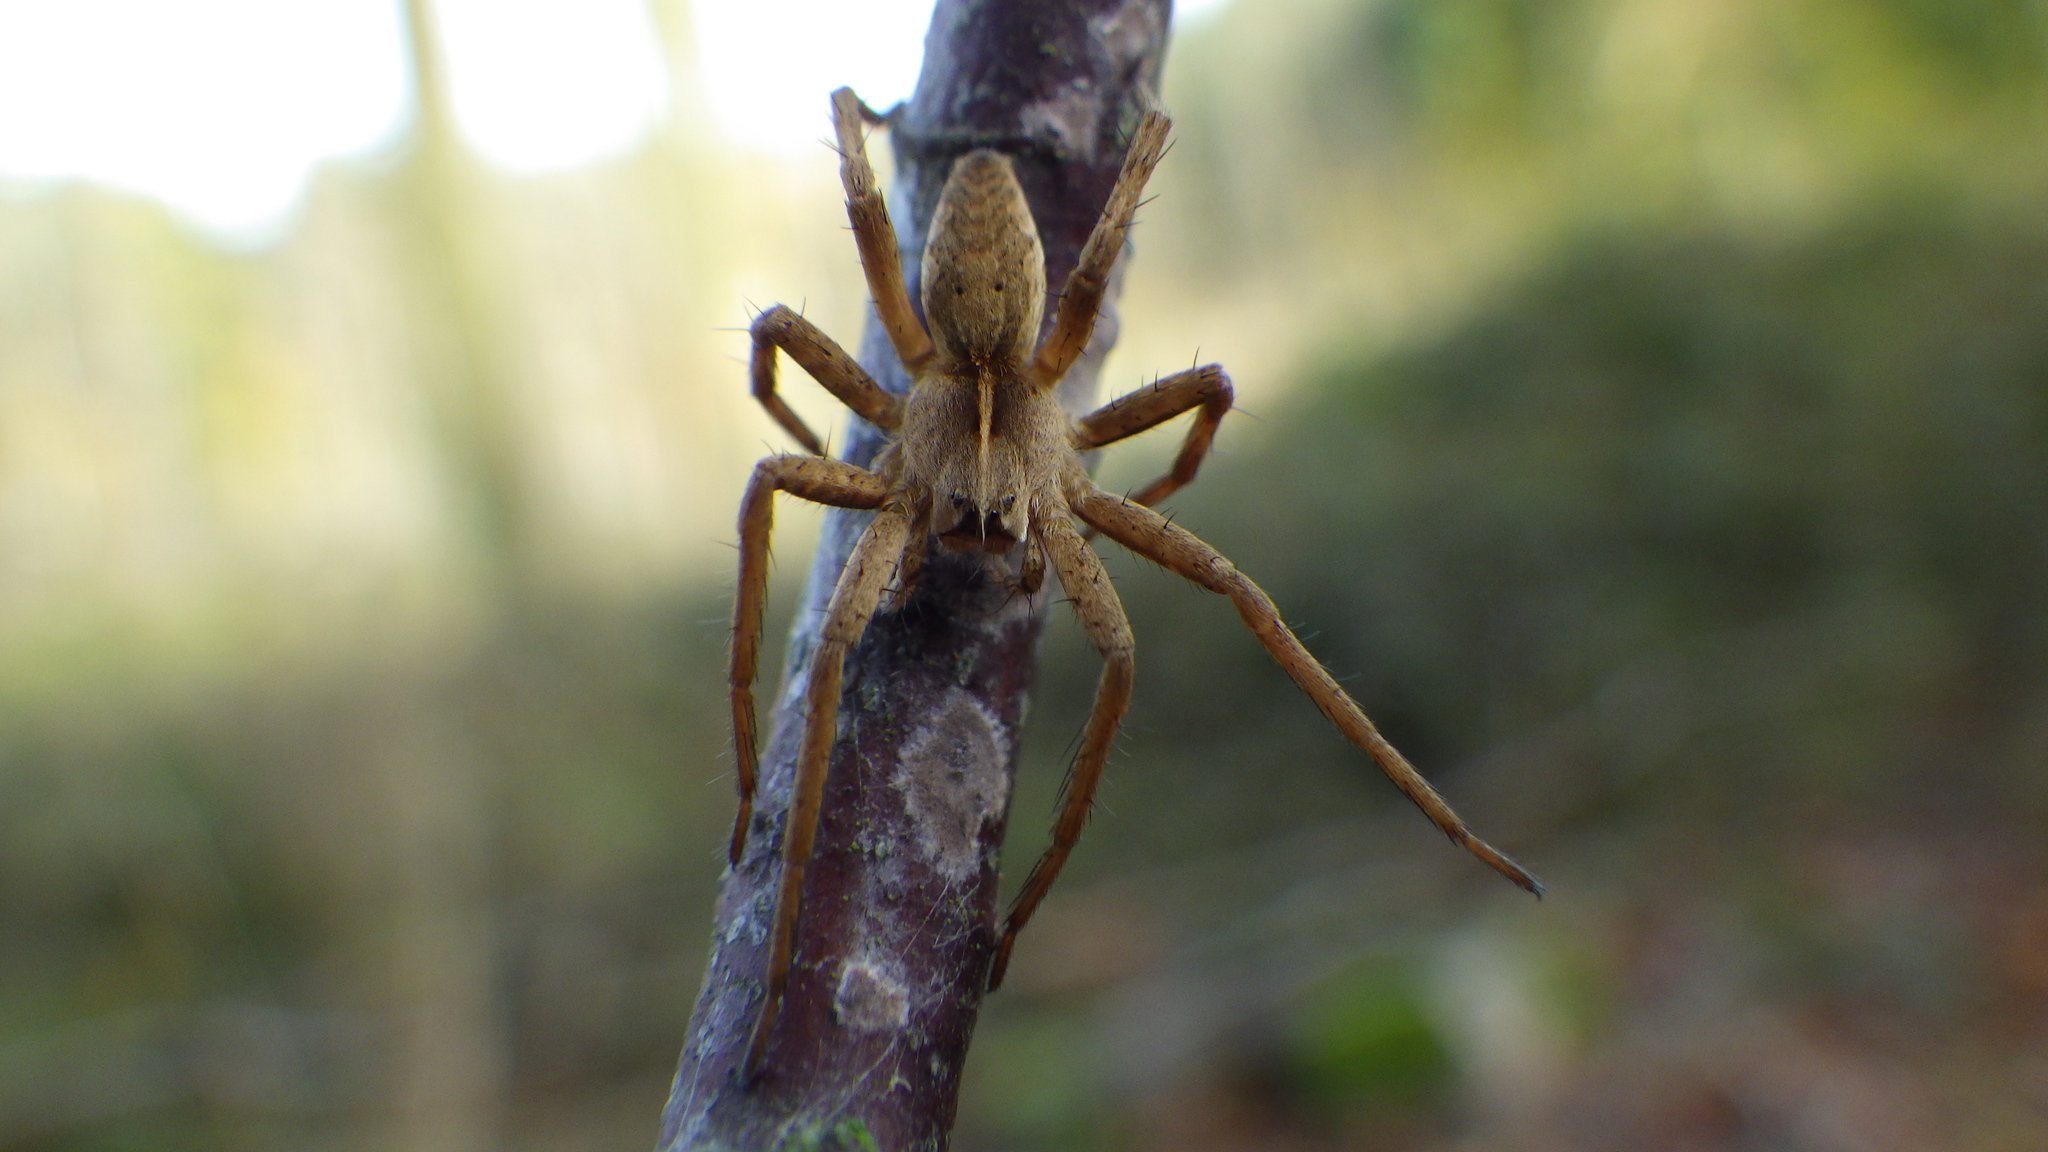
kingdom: Animalia
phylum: Arthropoda
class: Arachnida
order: Araneae
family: Pisauridae
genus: Pisaura
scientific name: Pisaura mirabilis
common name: Tent spider
